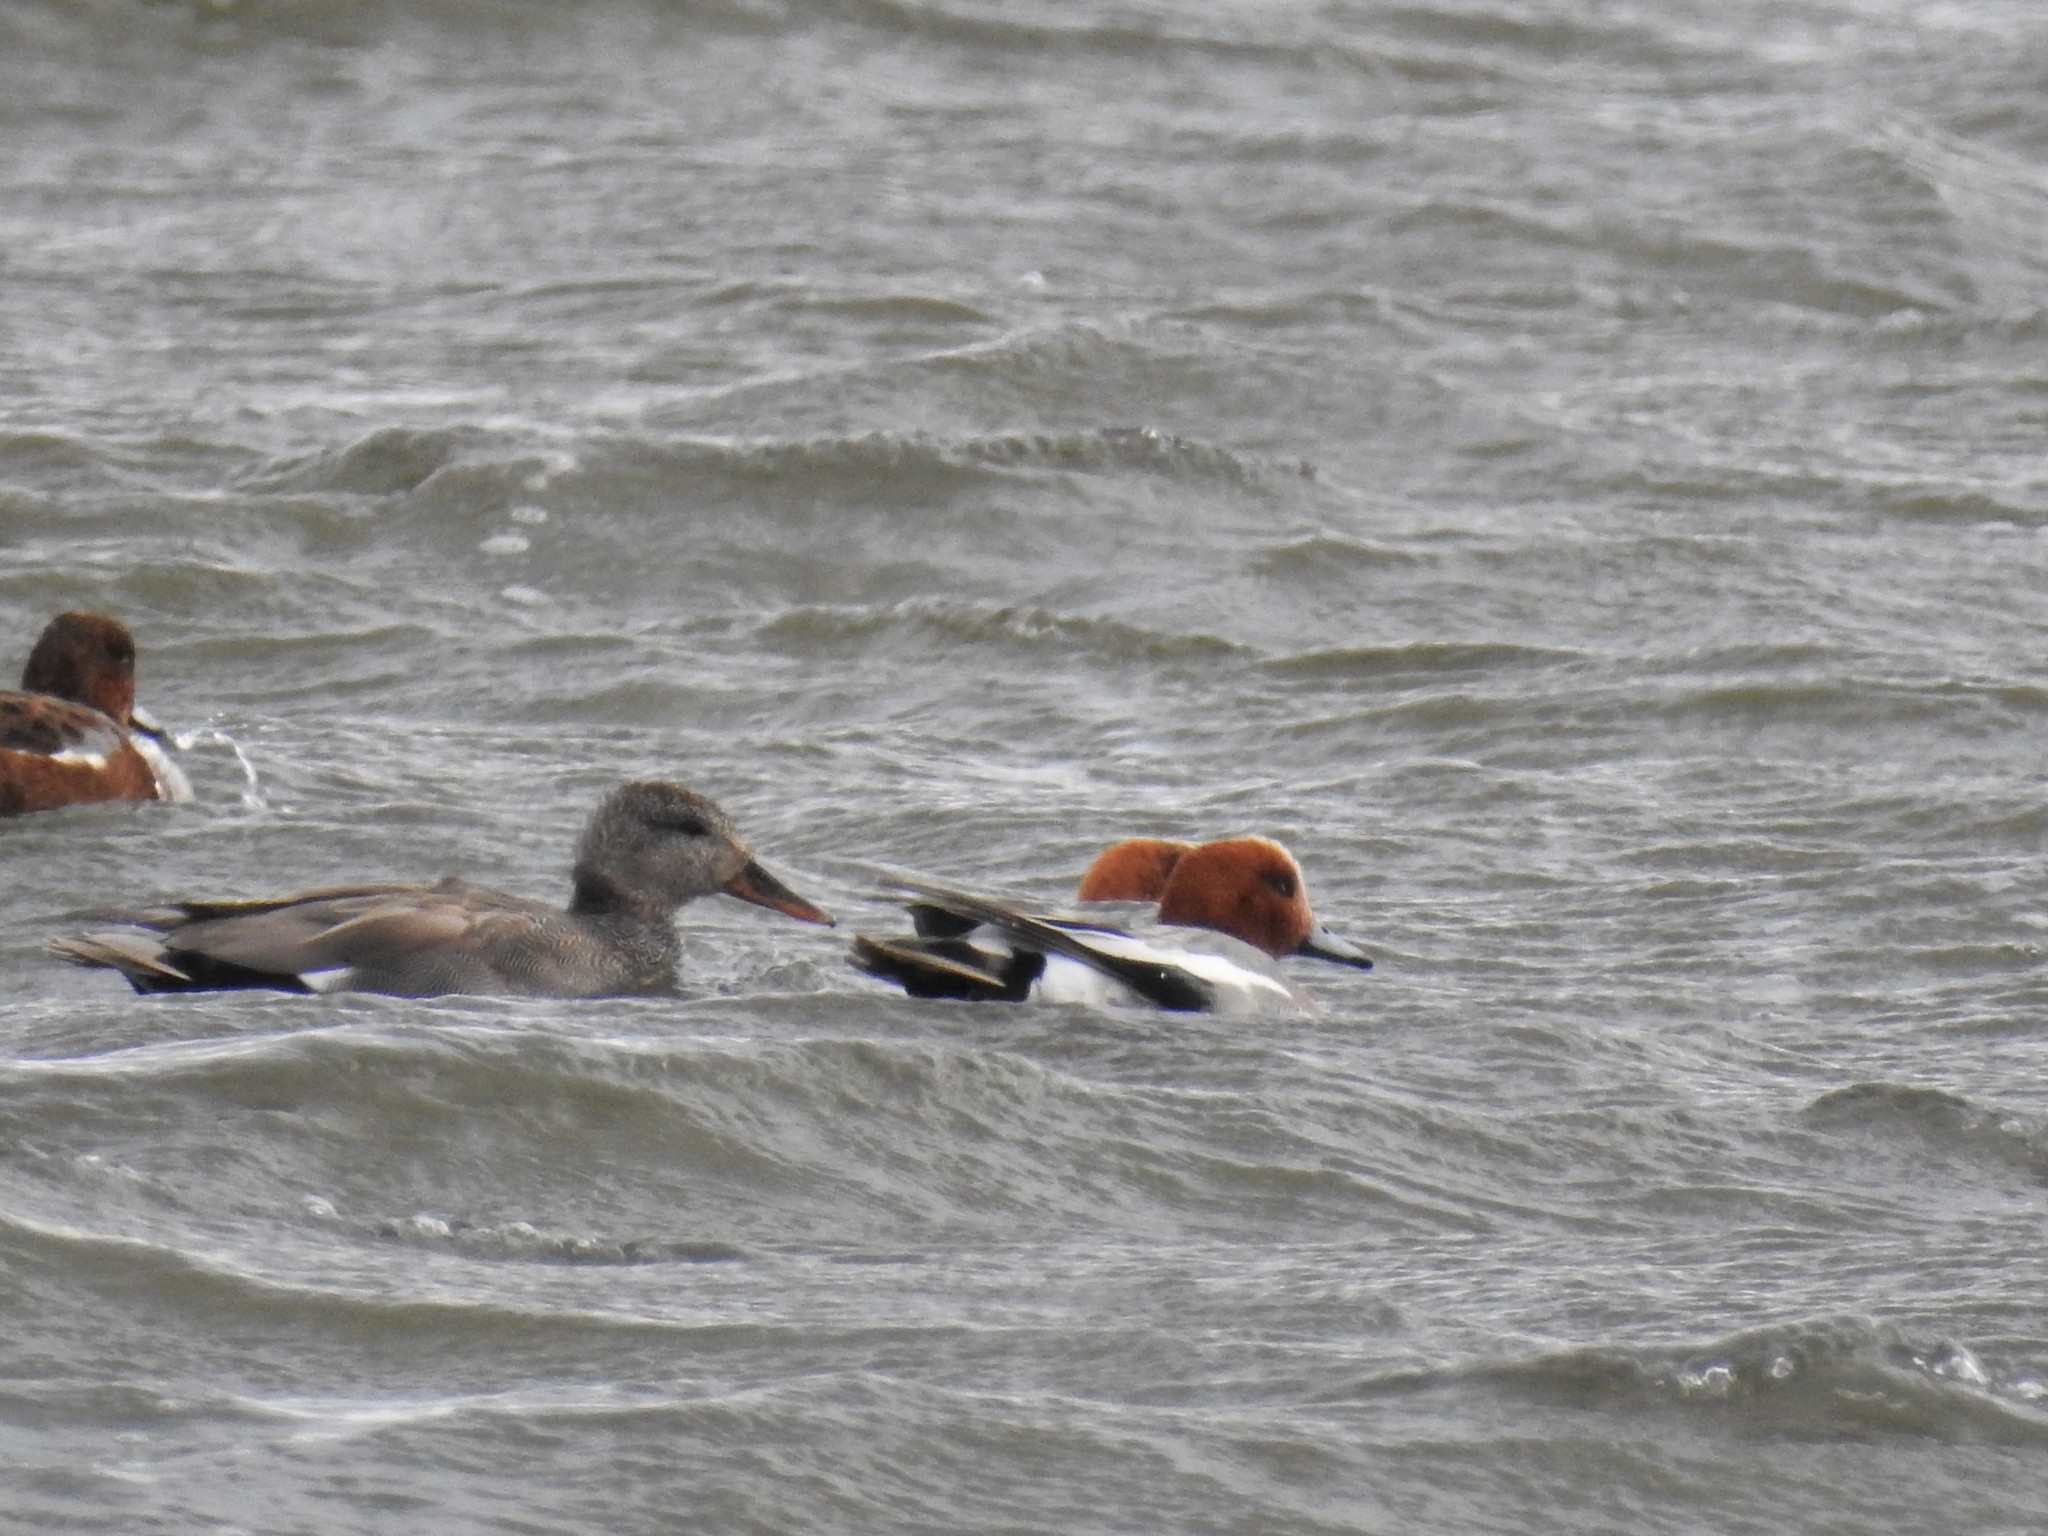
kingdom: Animalia
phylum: Chordata
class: Aves
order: Anseriformes
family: Anatidae
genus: Mareca
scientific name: Mareca penelope
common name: Eurasian wigeon
